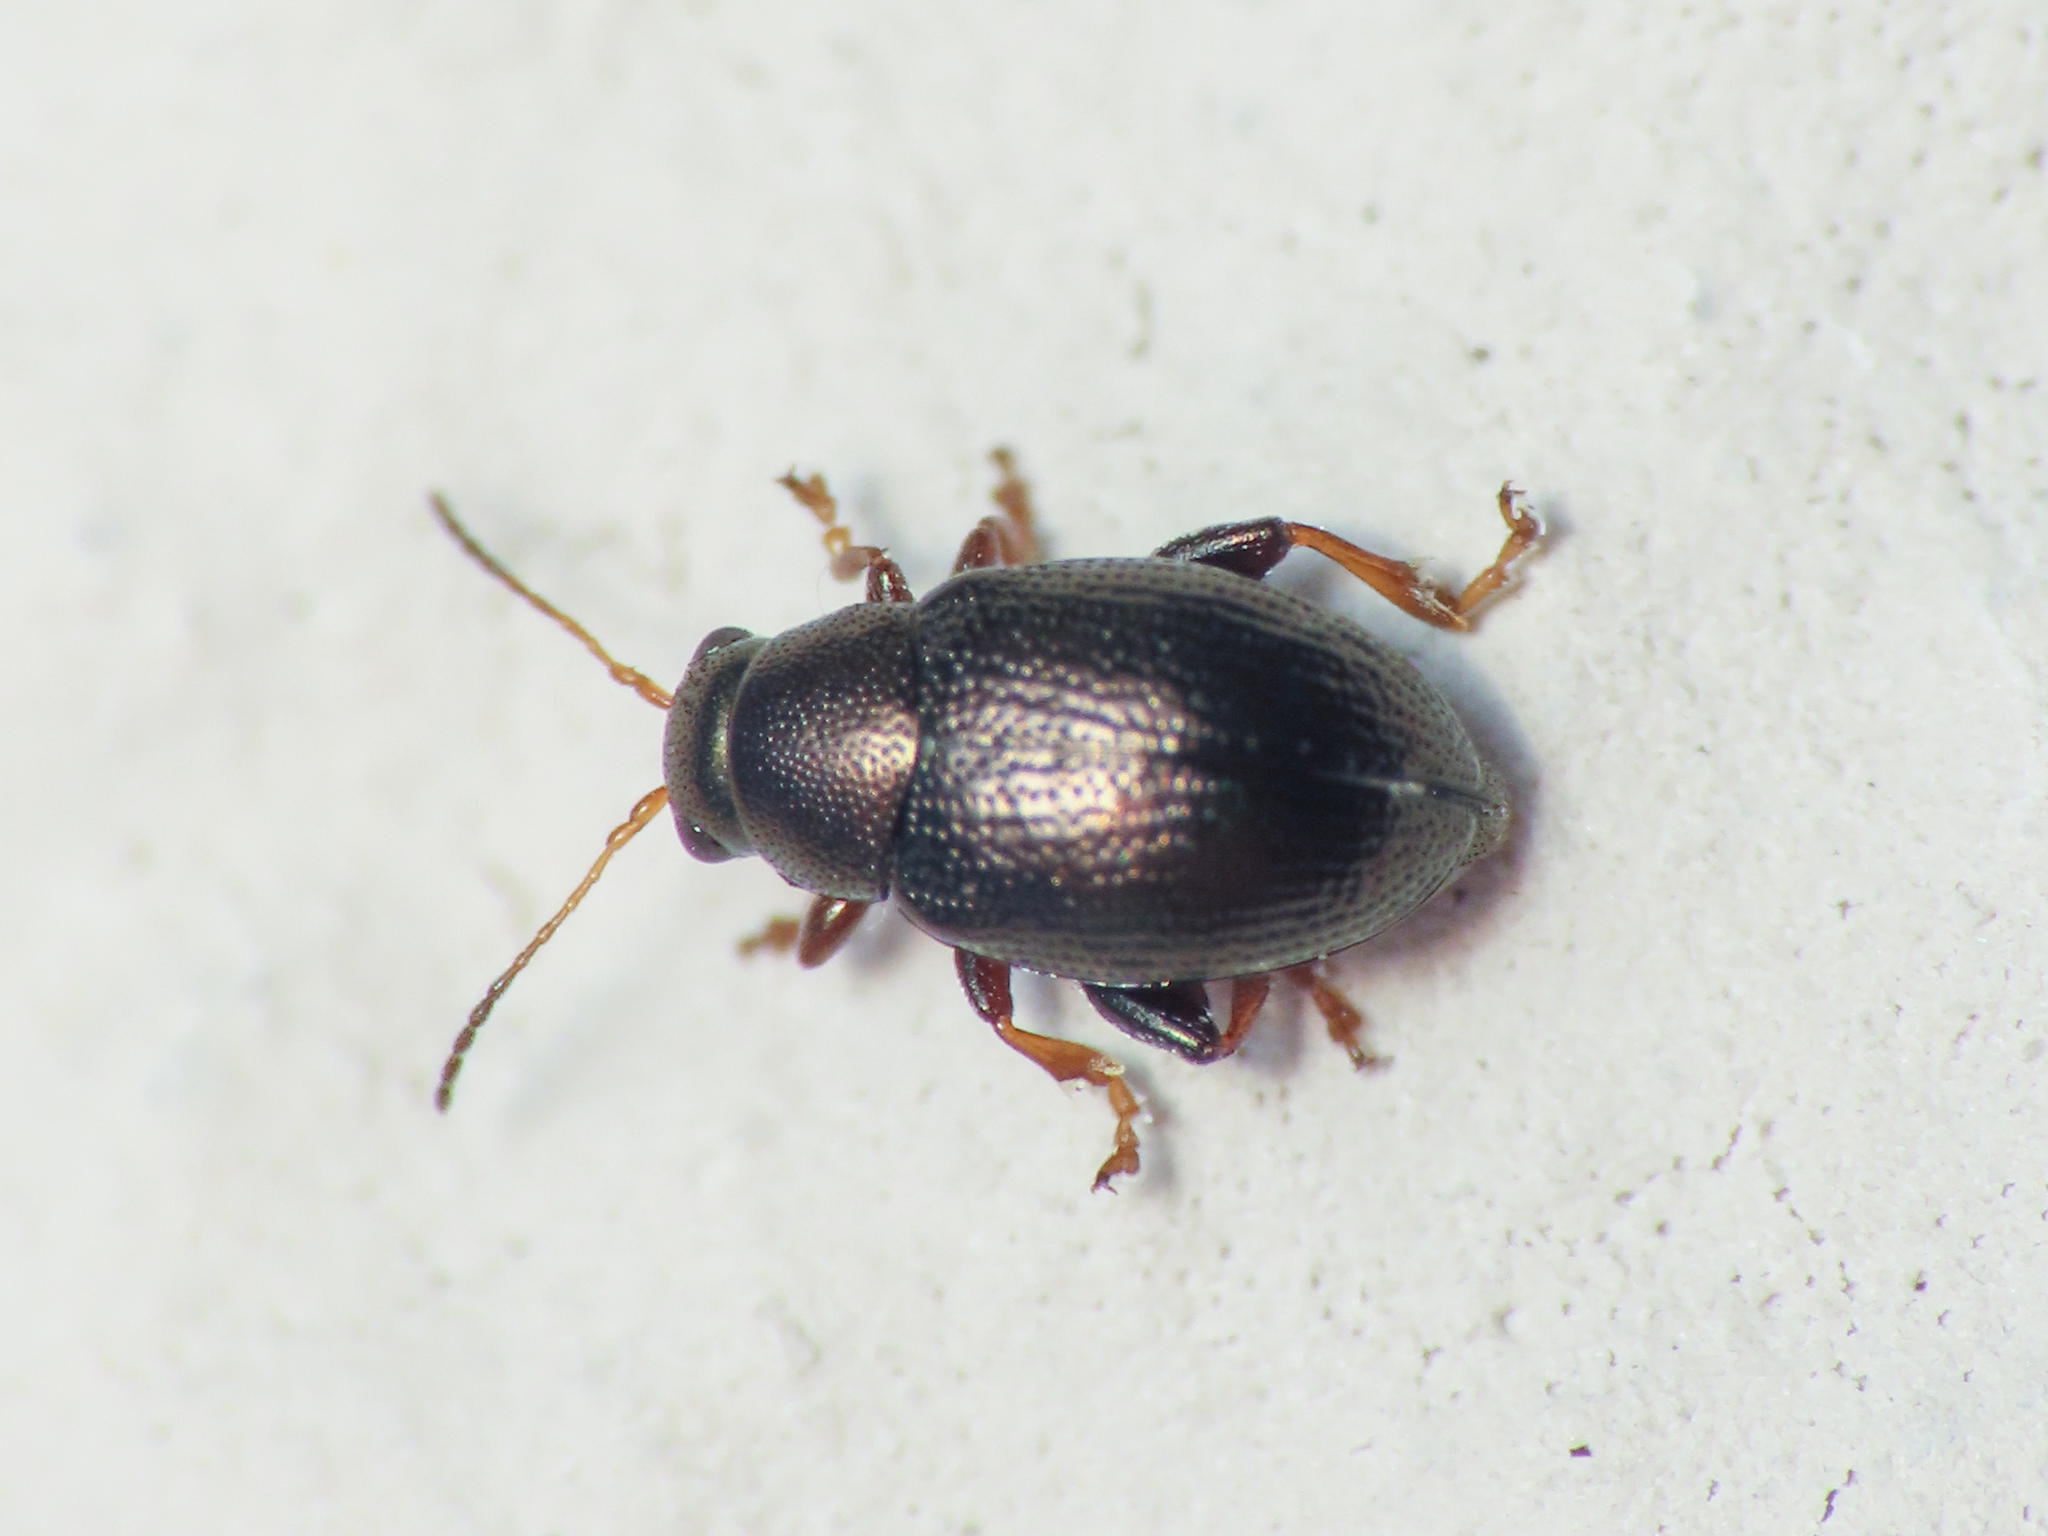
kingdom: Animalia
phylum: Arthropoda
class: Insecta
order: Coleoptera
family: Chrysomelidae
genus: Chaetocnema
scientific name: Chaetocnema hortensis
